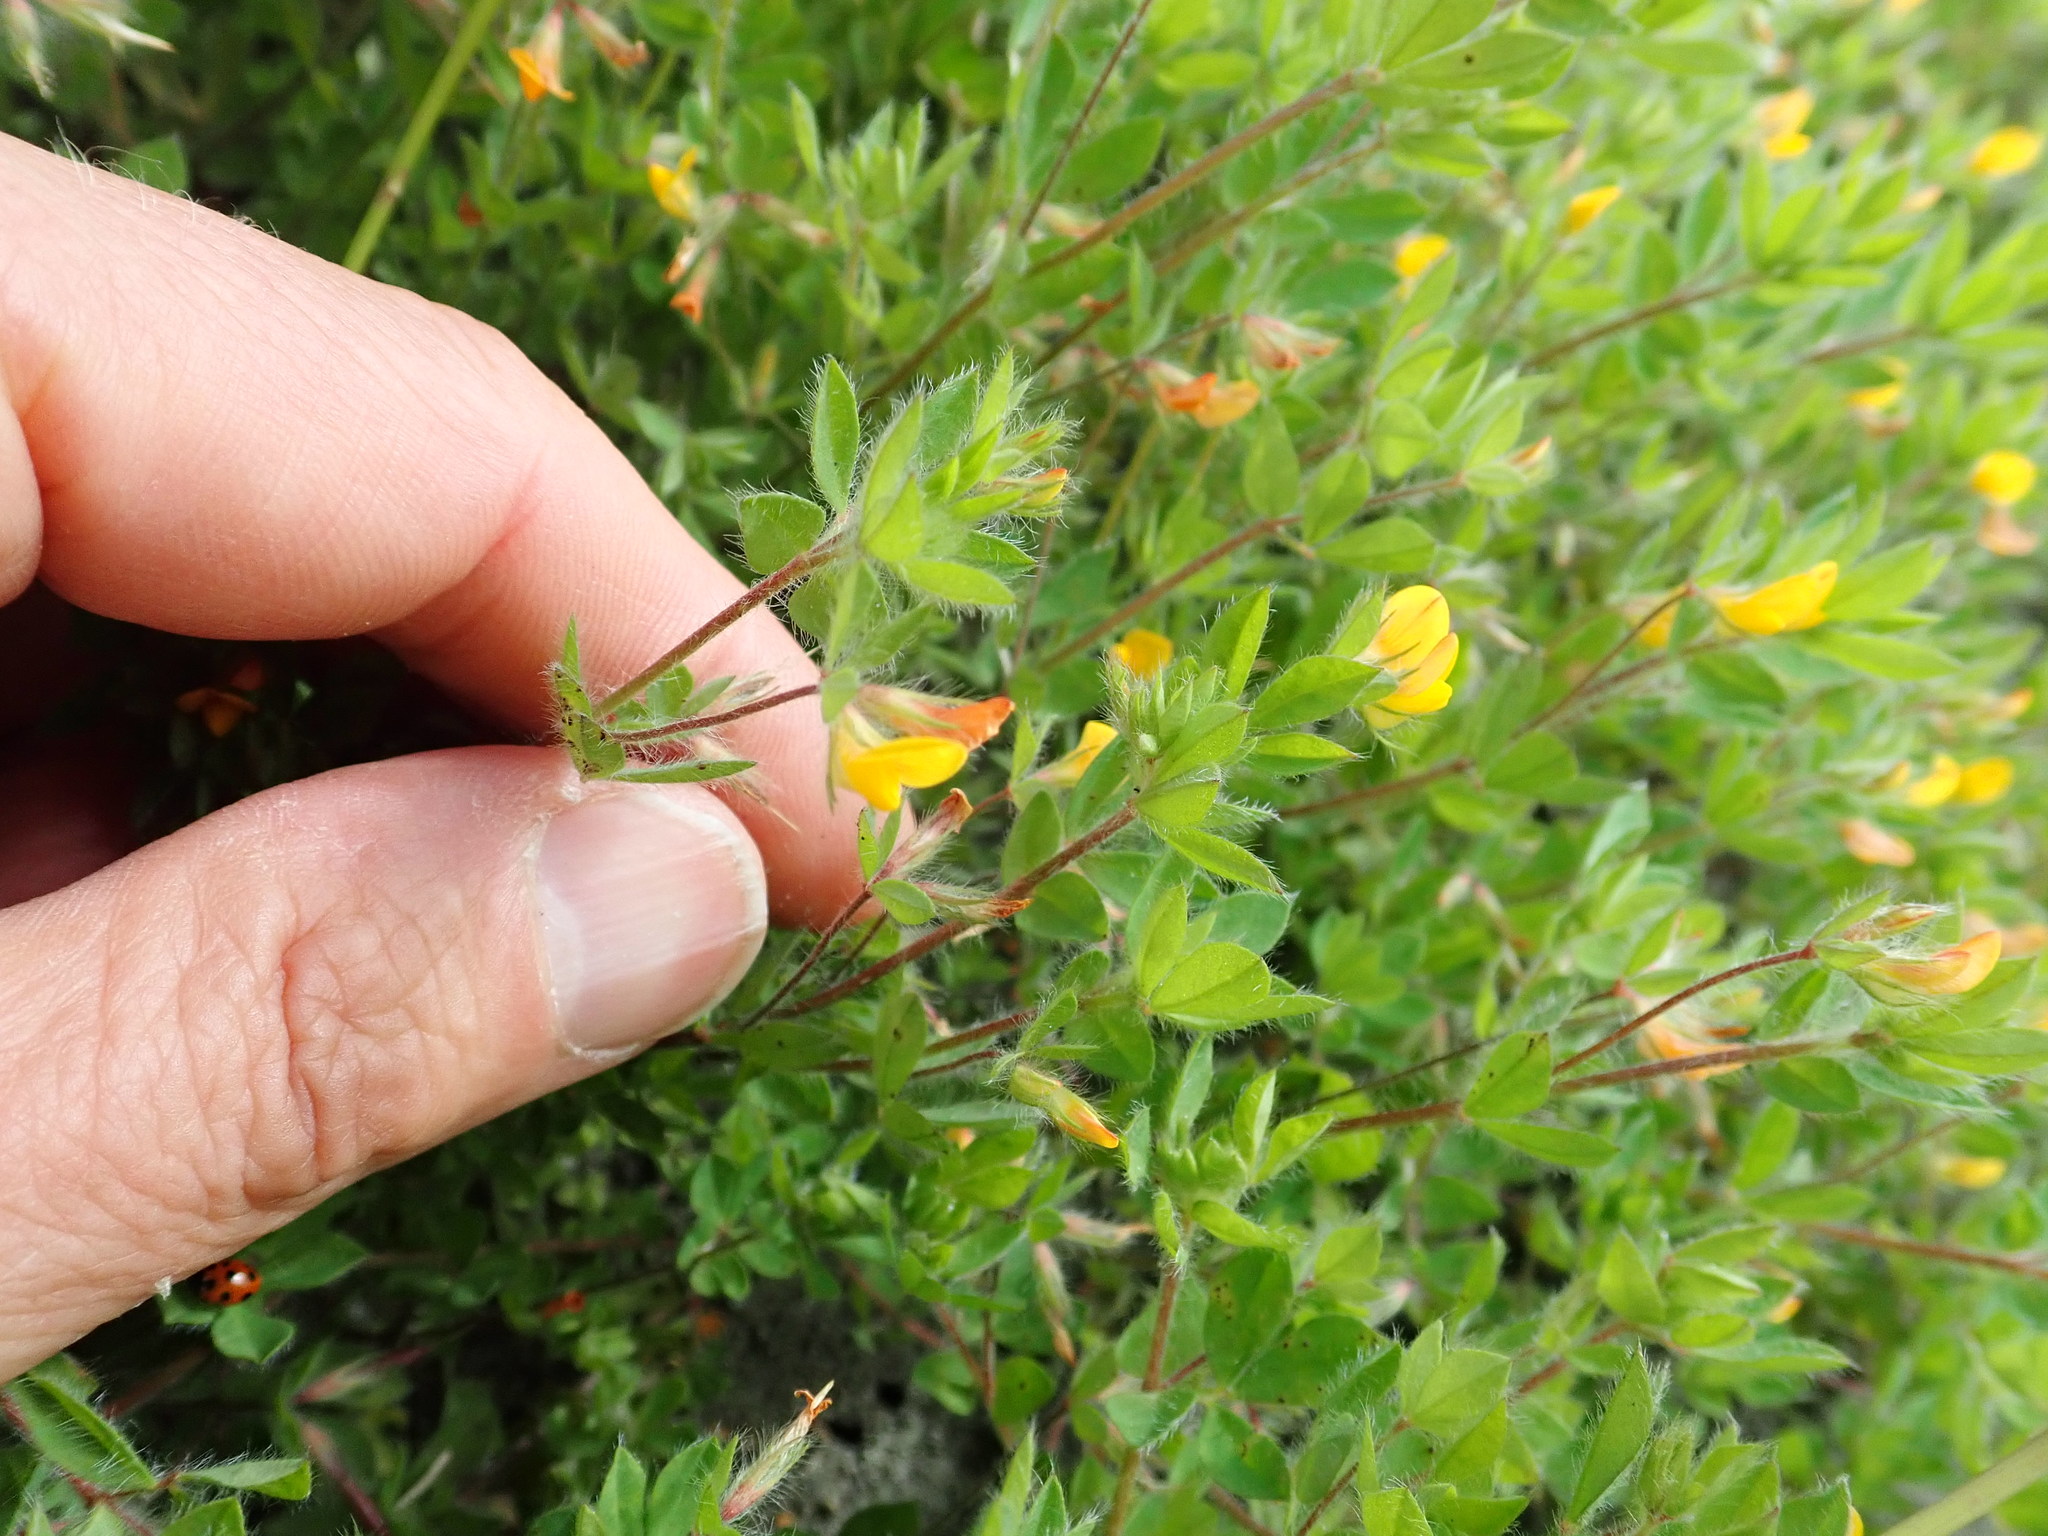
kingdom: Plantae
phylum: Tracheophyta
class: Magnoliopsida
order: Fabales
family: Fabaceae
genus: Lotus
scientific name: Lotus subbiflorus
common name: Hairy bird's-foot trefoil
